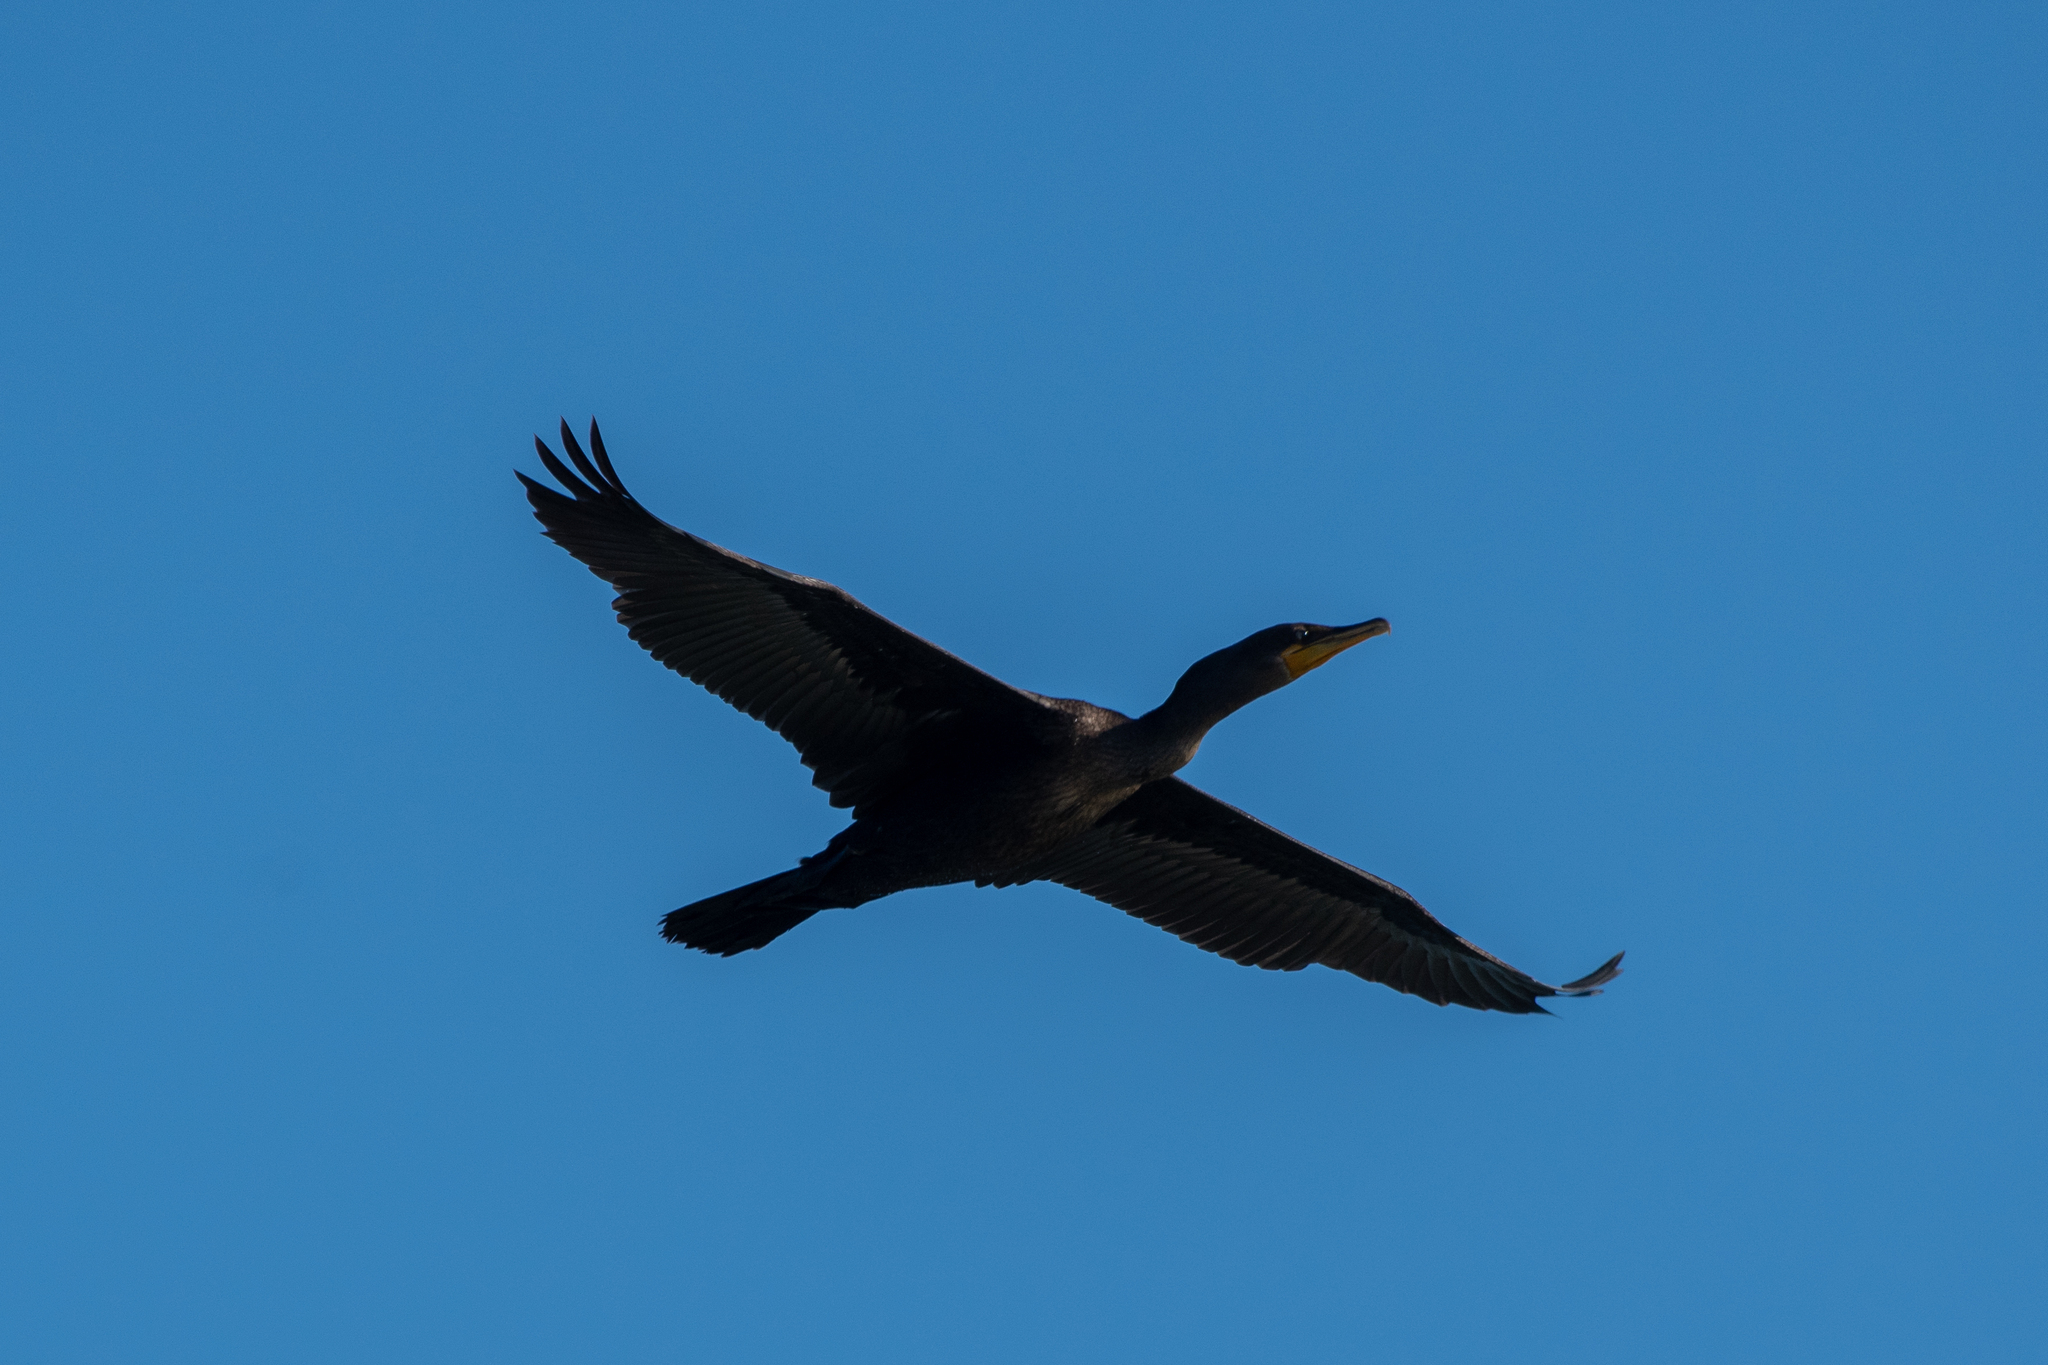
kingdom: Animalia
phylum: Chordata
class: Aves
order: Suliformes
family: Phalacrocoracidae
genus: Phalacrocorax
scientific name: Phalacrocorax auritus
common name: Double-crested cormorant
